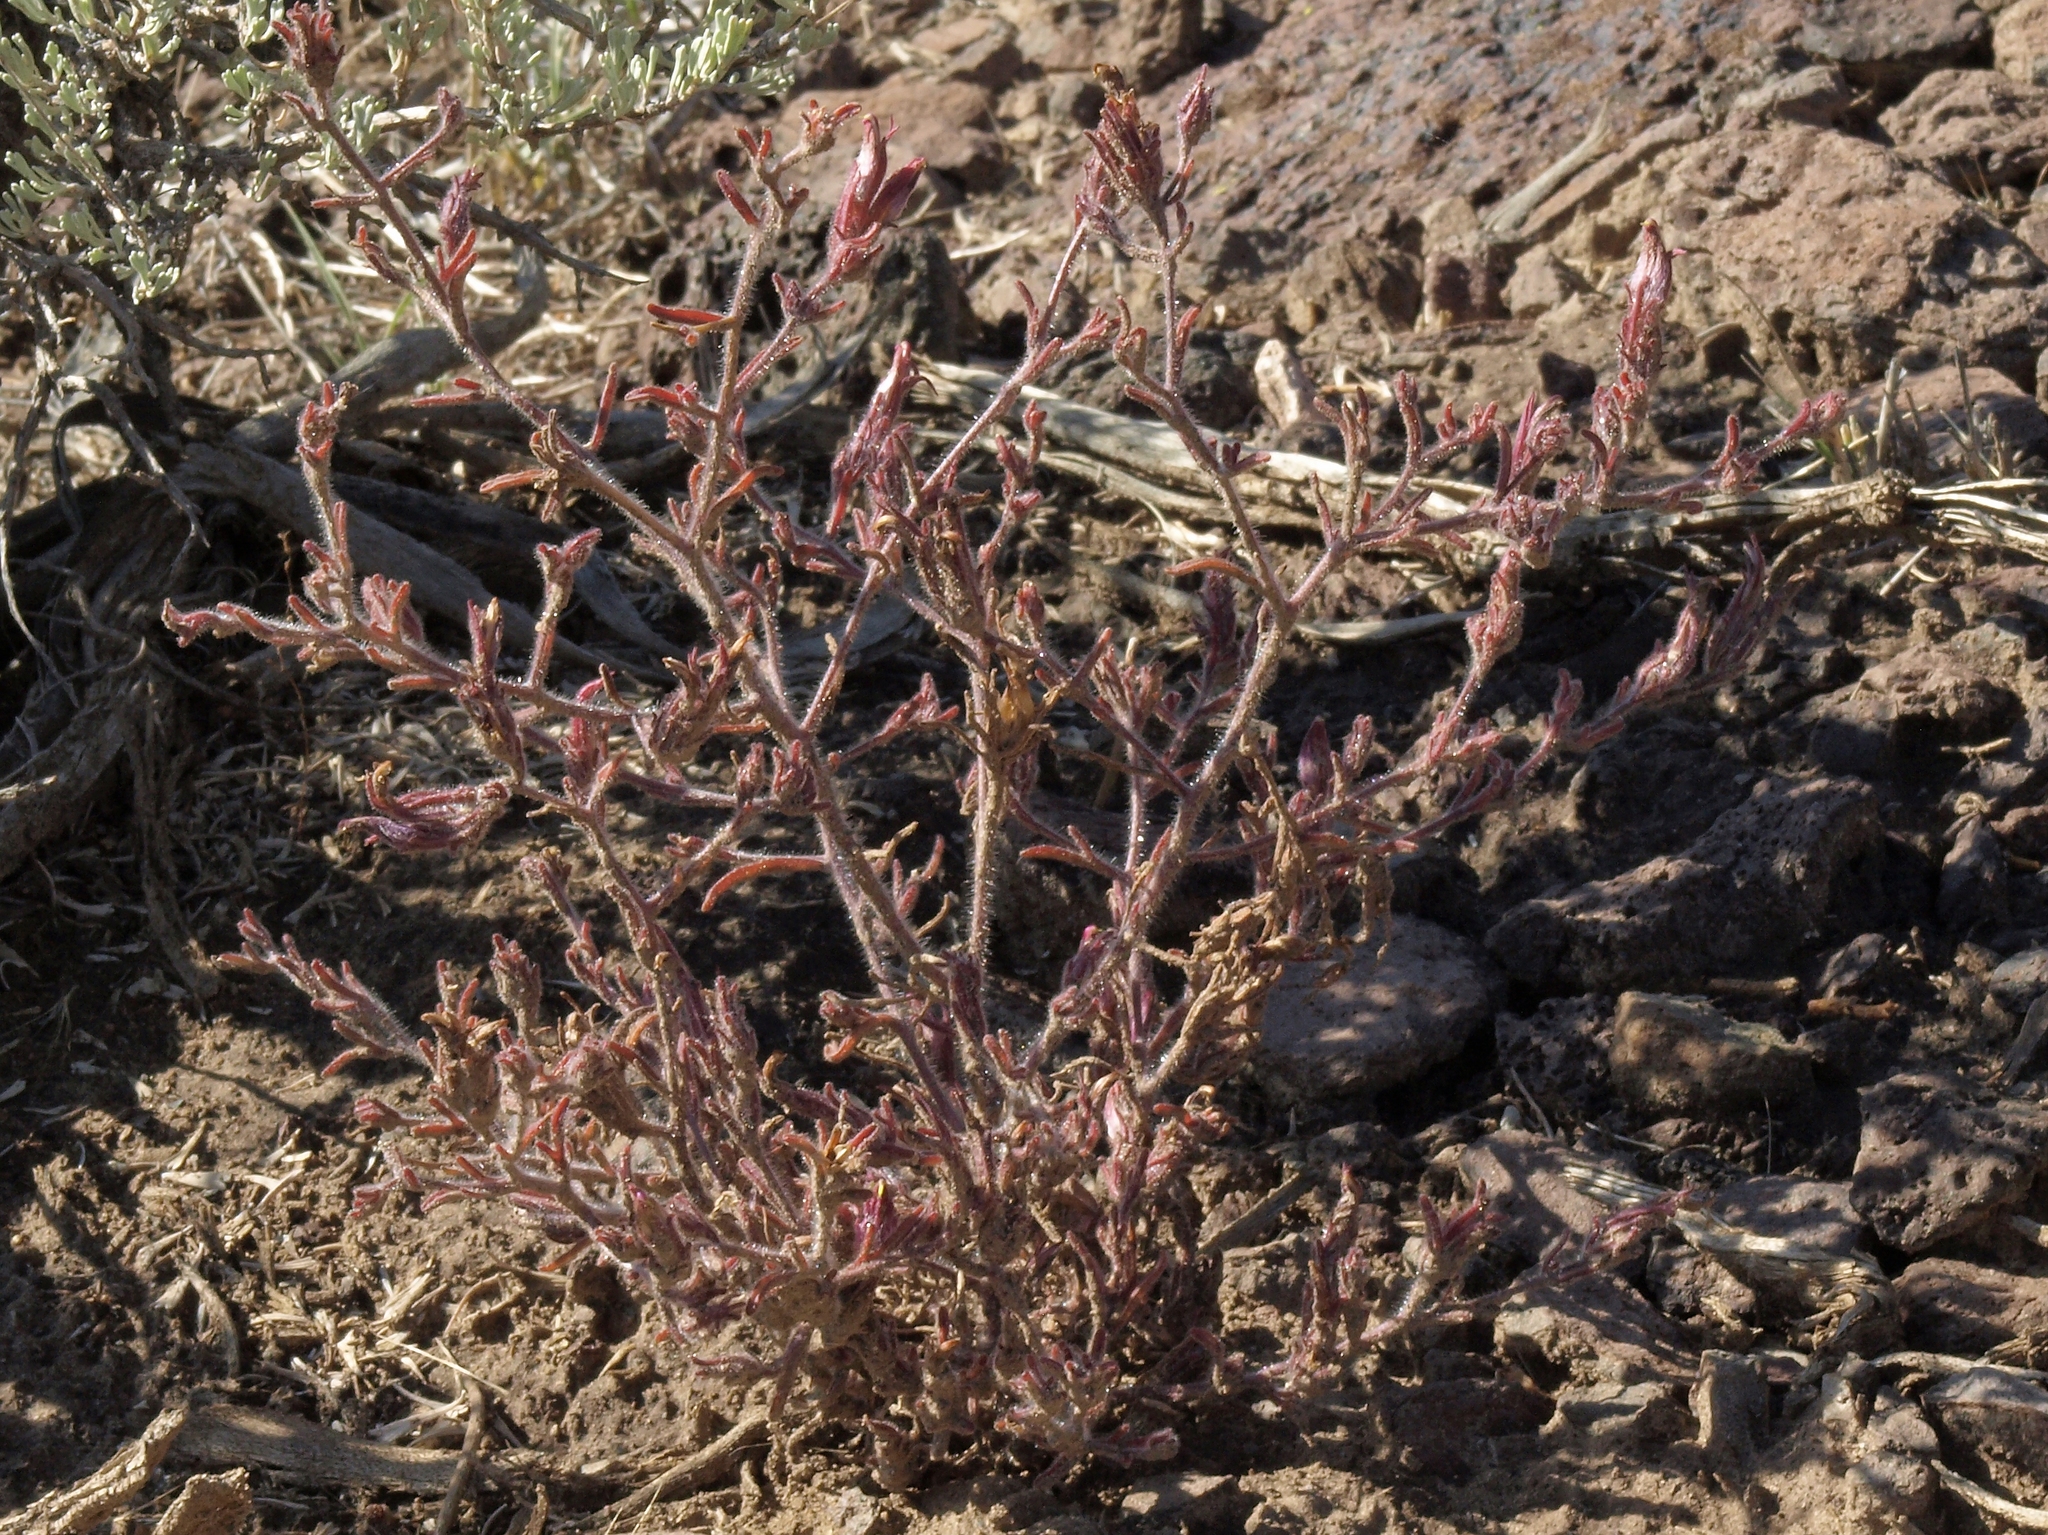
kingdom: Plantae
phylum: Tracheophyta
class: Magnoliopsida
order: Lamiales
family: Orobanchaceae
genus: Cordylanthus
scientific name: Cordylanthus kingii
